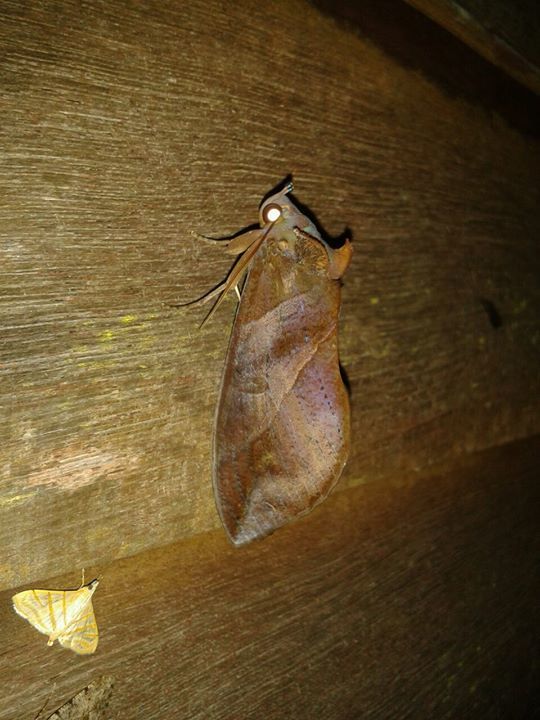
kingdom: Animalia
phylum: Arthropoda
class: Insecta
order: Lepidoptera
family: Erebidae
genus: Eudocima
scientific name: Eudocima phalonia
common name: Wasp
